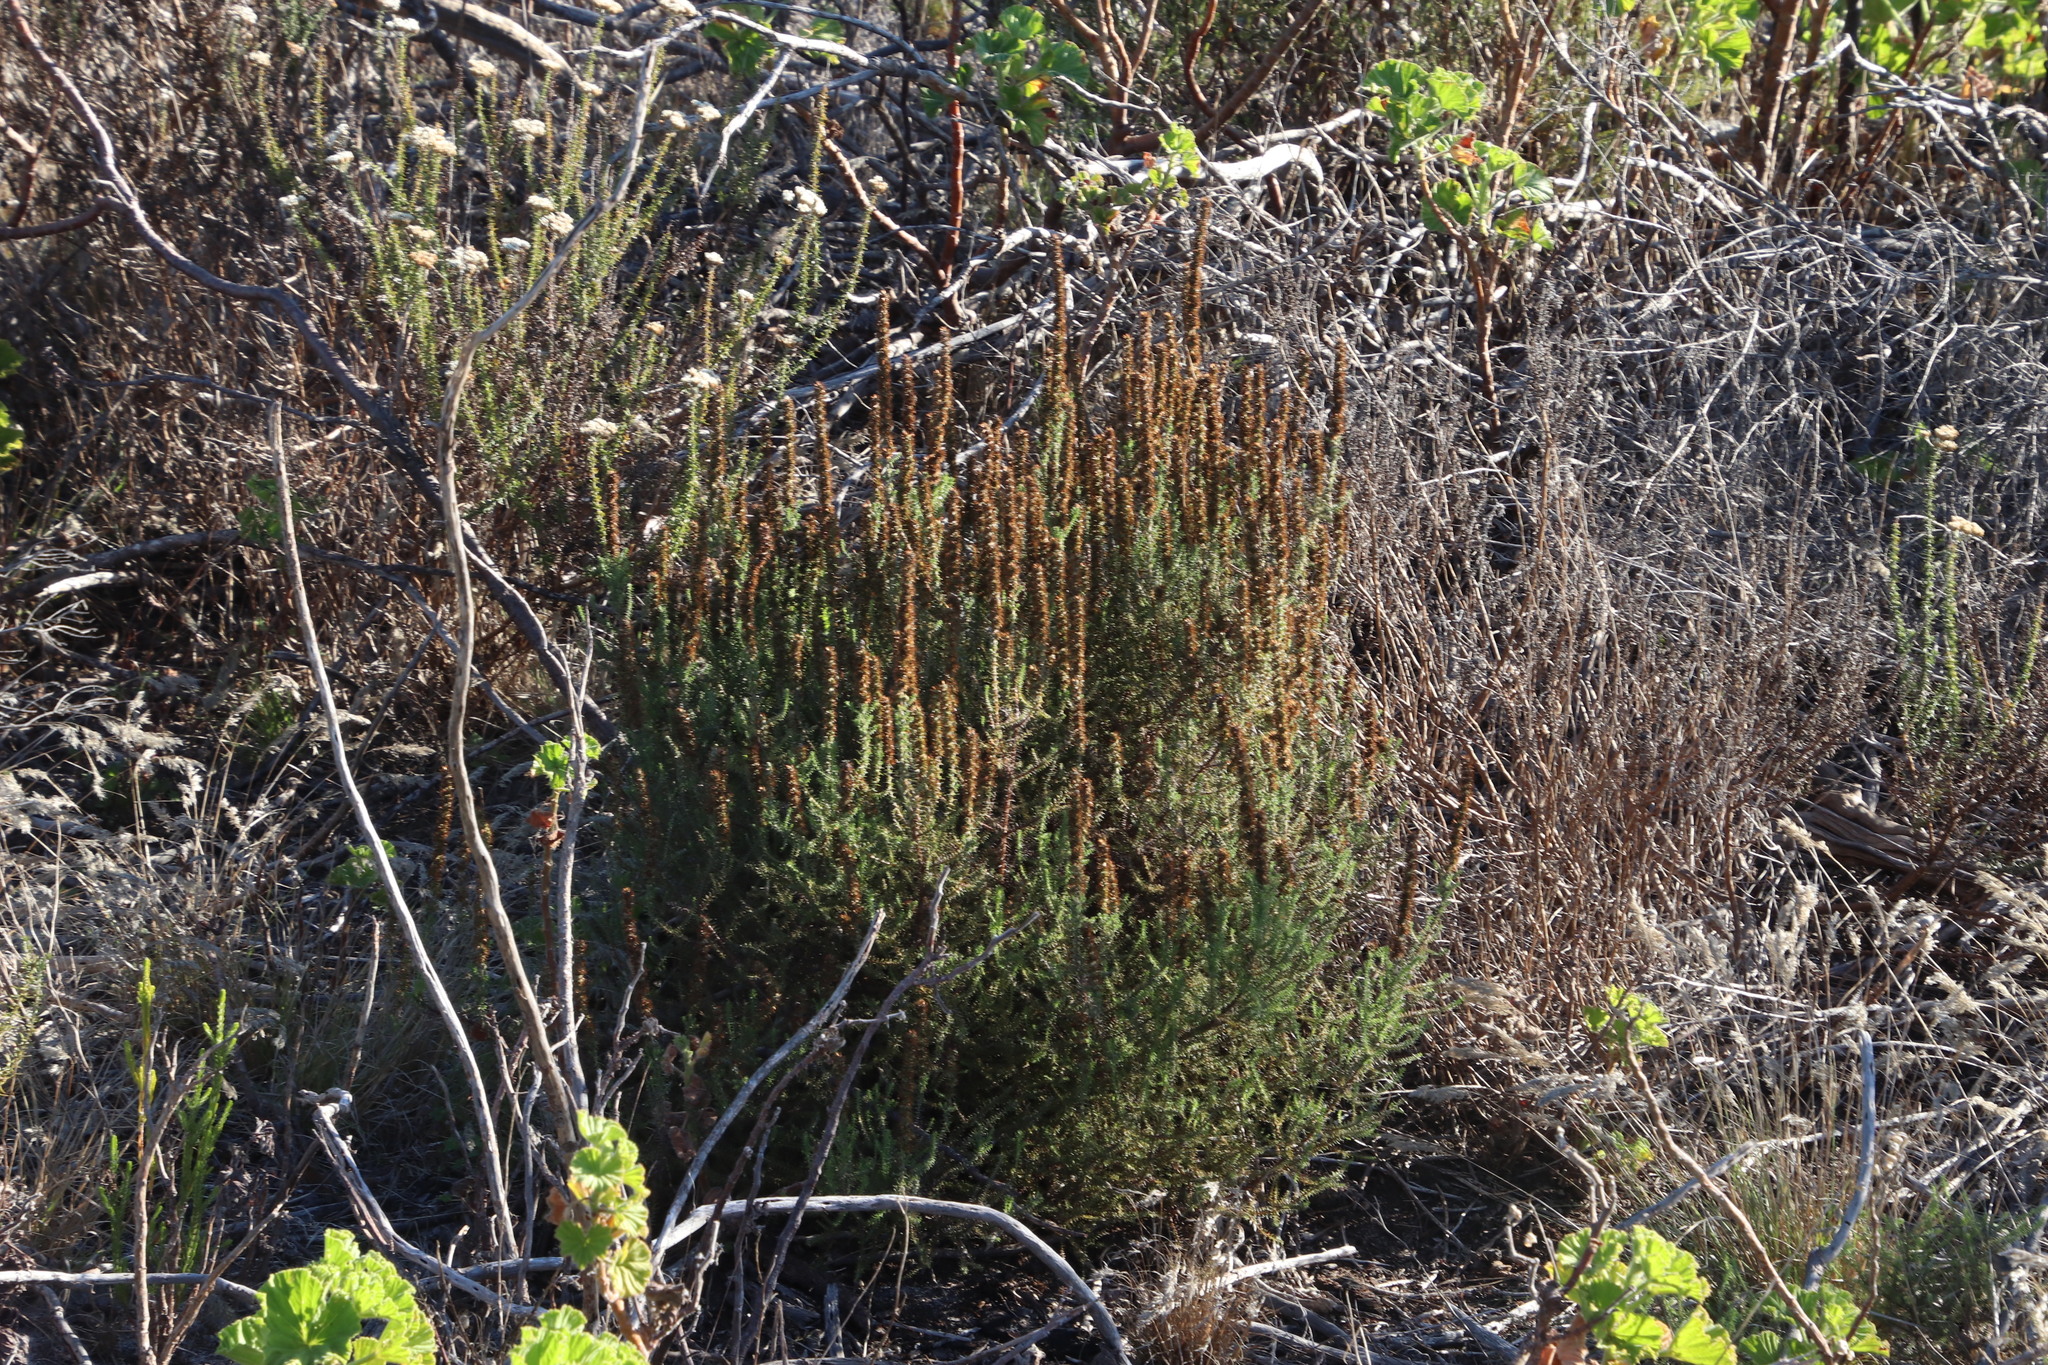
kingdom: Plantae
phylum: Tracheophyta
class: Magnoliopsida
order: Asterales
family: Asteraceae
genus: Seriphium
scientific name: Seriphium cinereum
